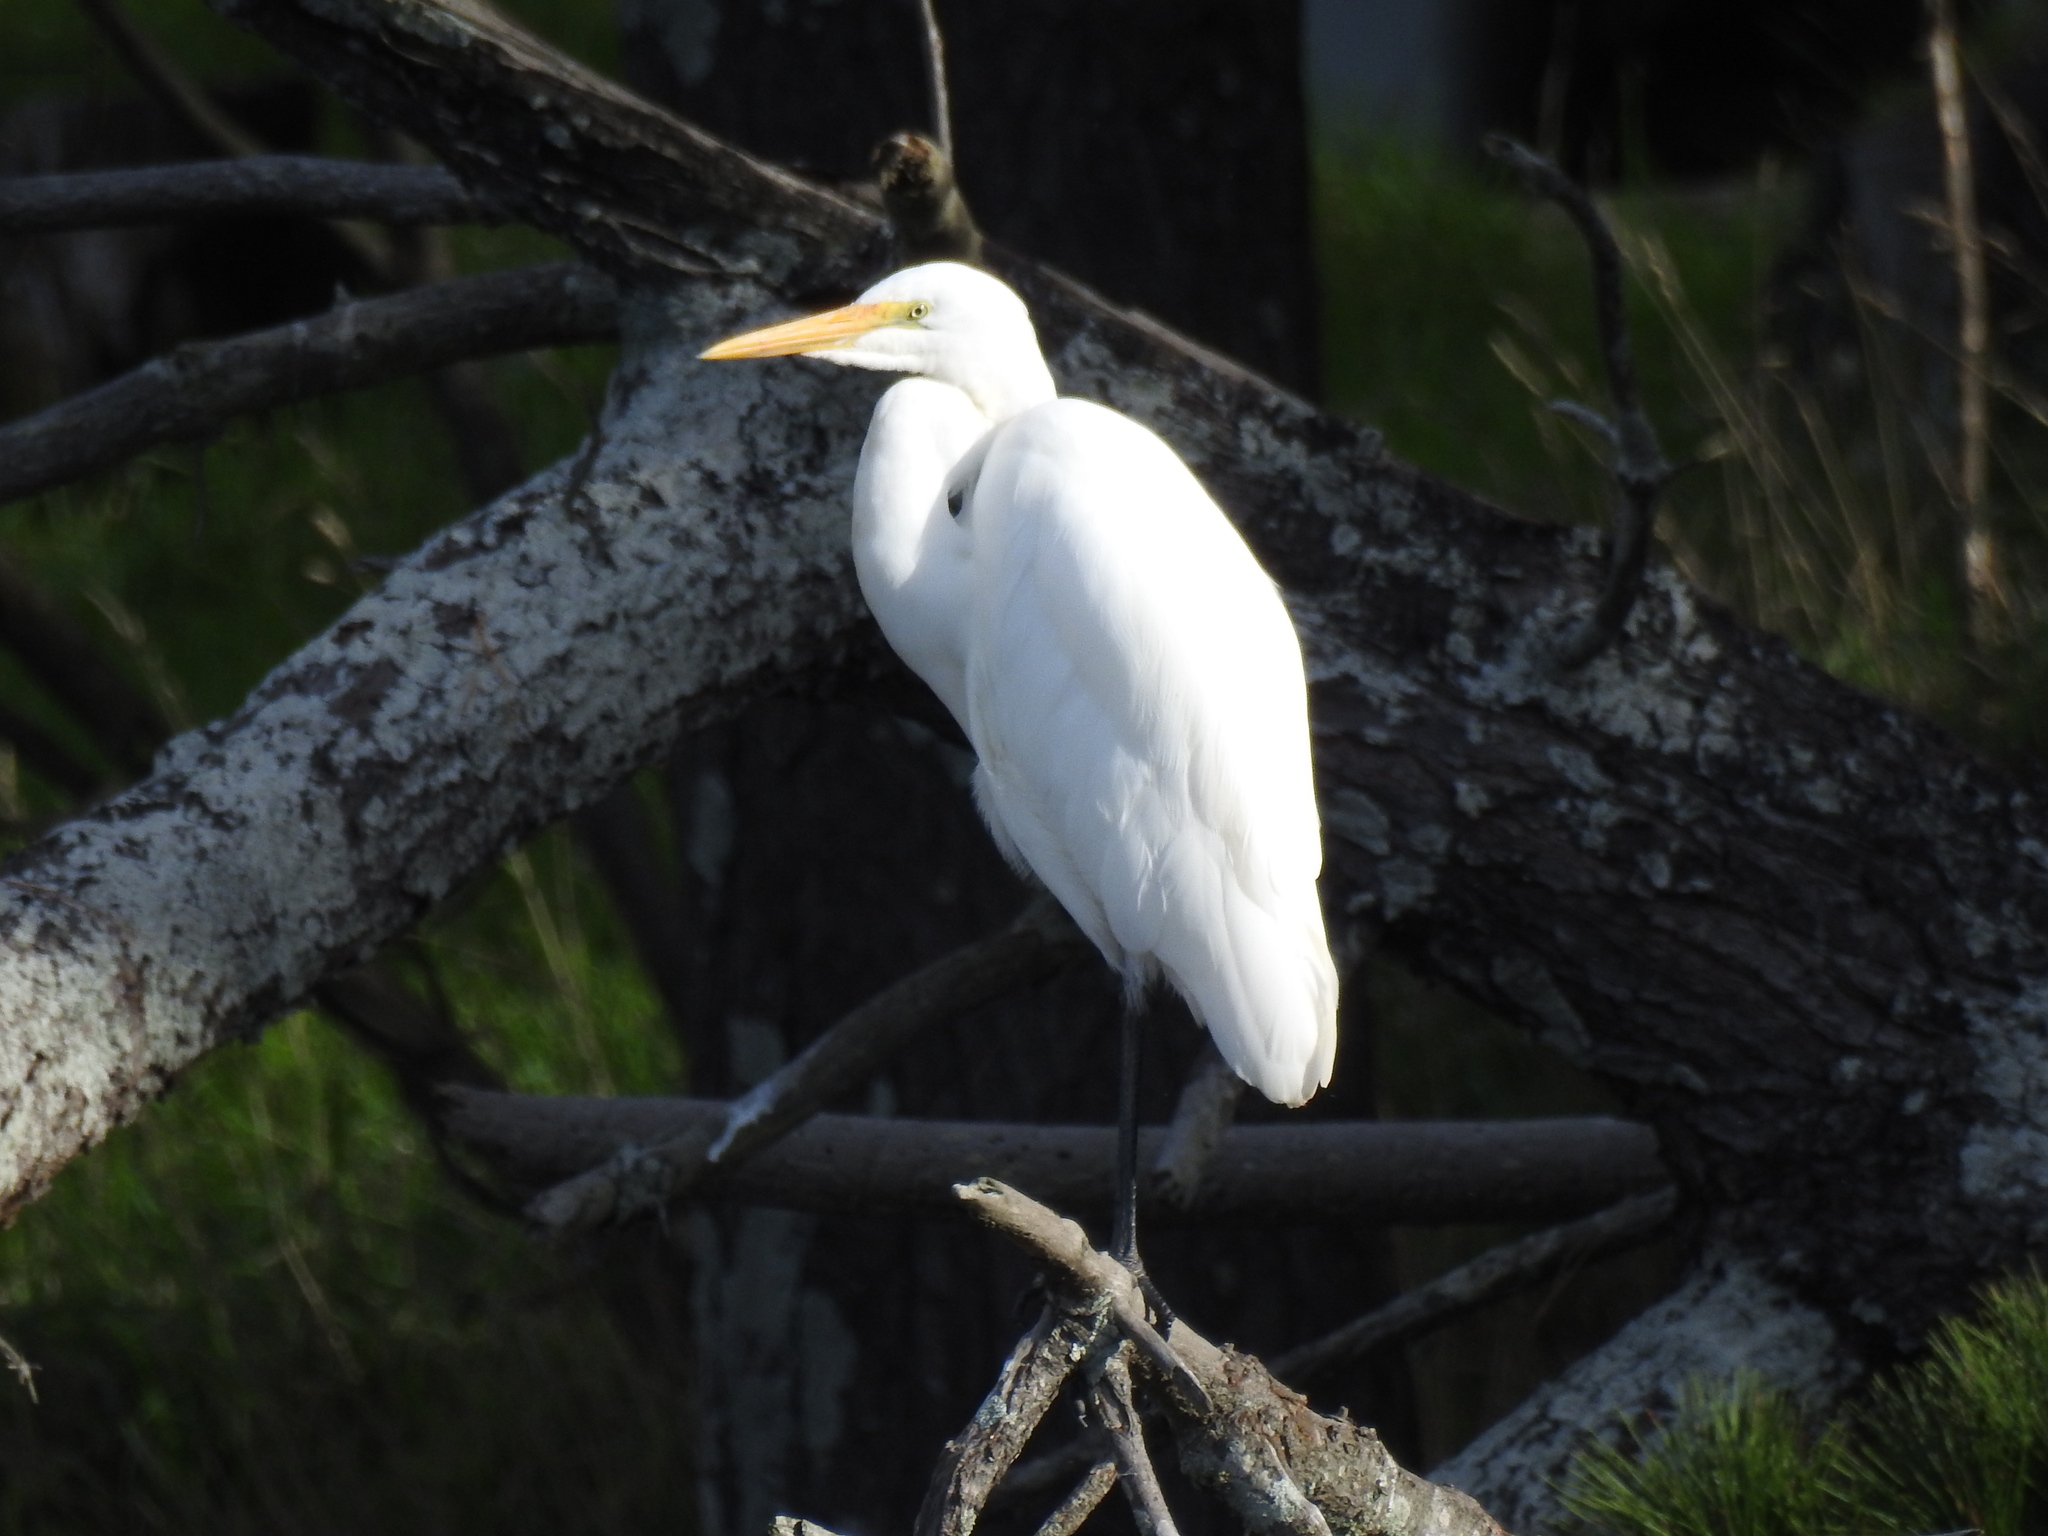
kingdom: Animalia
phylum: Chordata
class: Aves
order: Pelecaniformes
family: Ardeidae
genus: Ardea
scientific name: Ardea modesta
